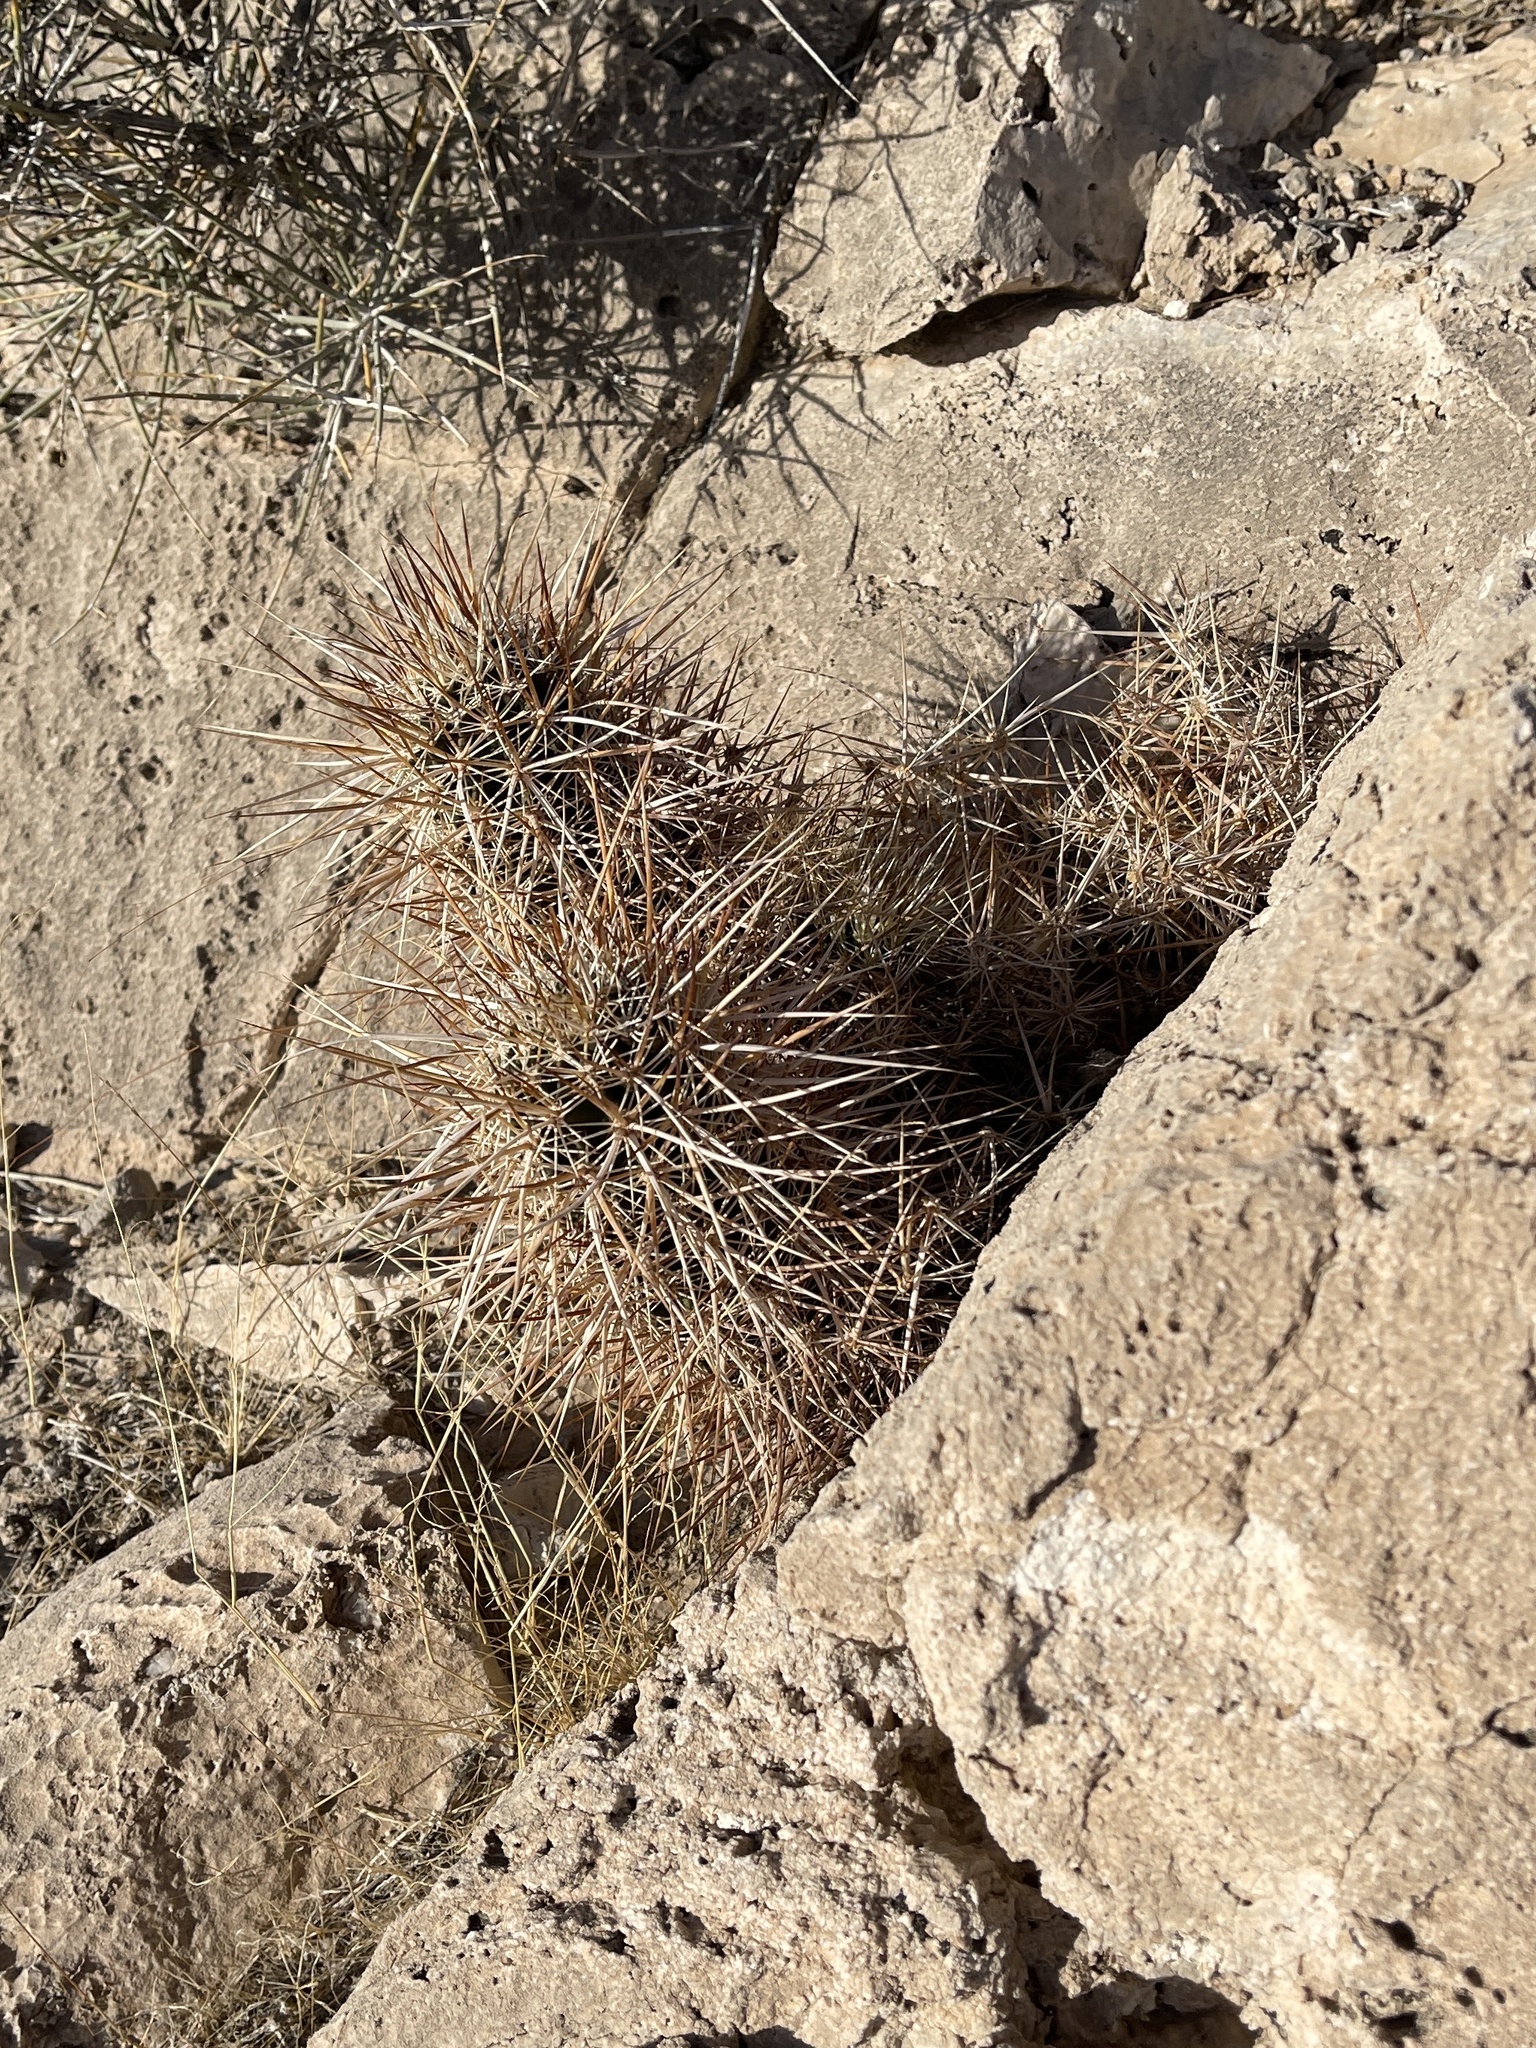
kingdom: Plantae
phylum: Tracheophyta
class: Magnoliopsida
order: Caryophyllales
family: Cactaceae
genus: Echinocereus
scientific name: Echinocereus engelmannii
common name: Engelmann's hedgehog cactus
